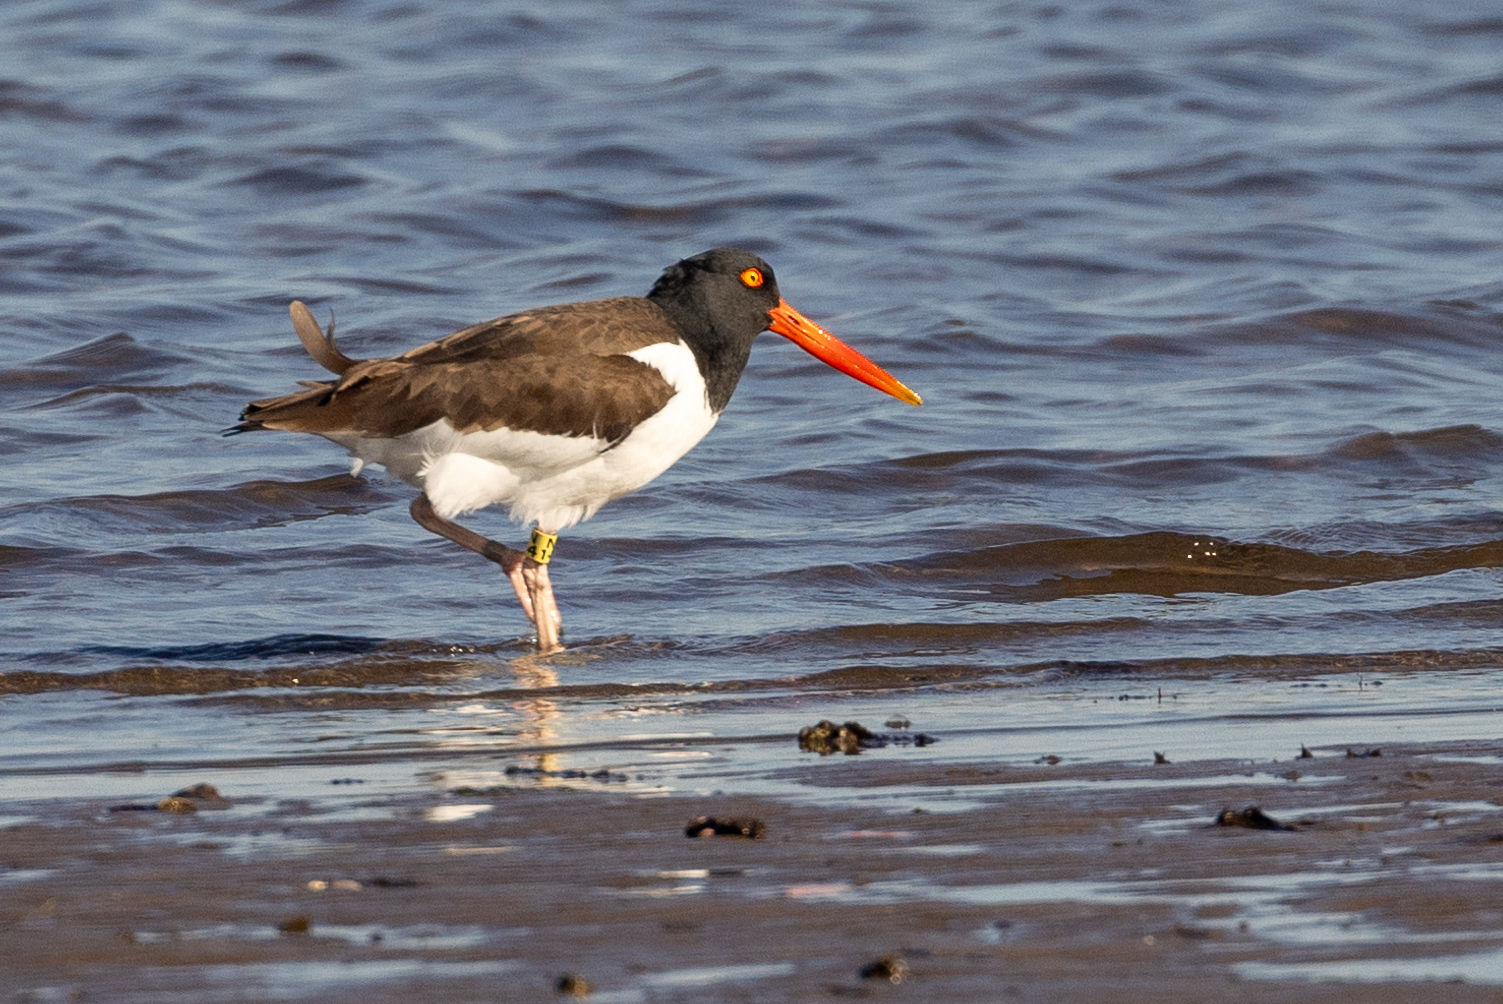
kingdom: Animalia
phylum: Chordata
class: Aves
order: Charadriiformes
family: Haematopodidae
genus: Haematopus
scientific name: Haematopus palliatus
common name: American oystercatcher
